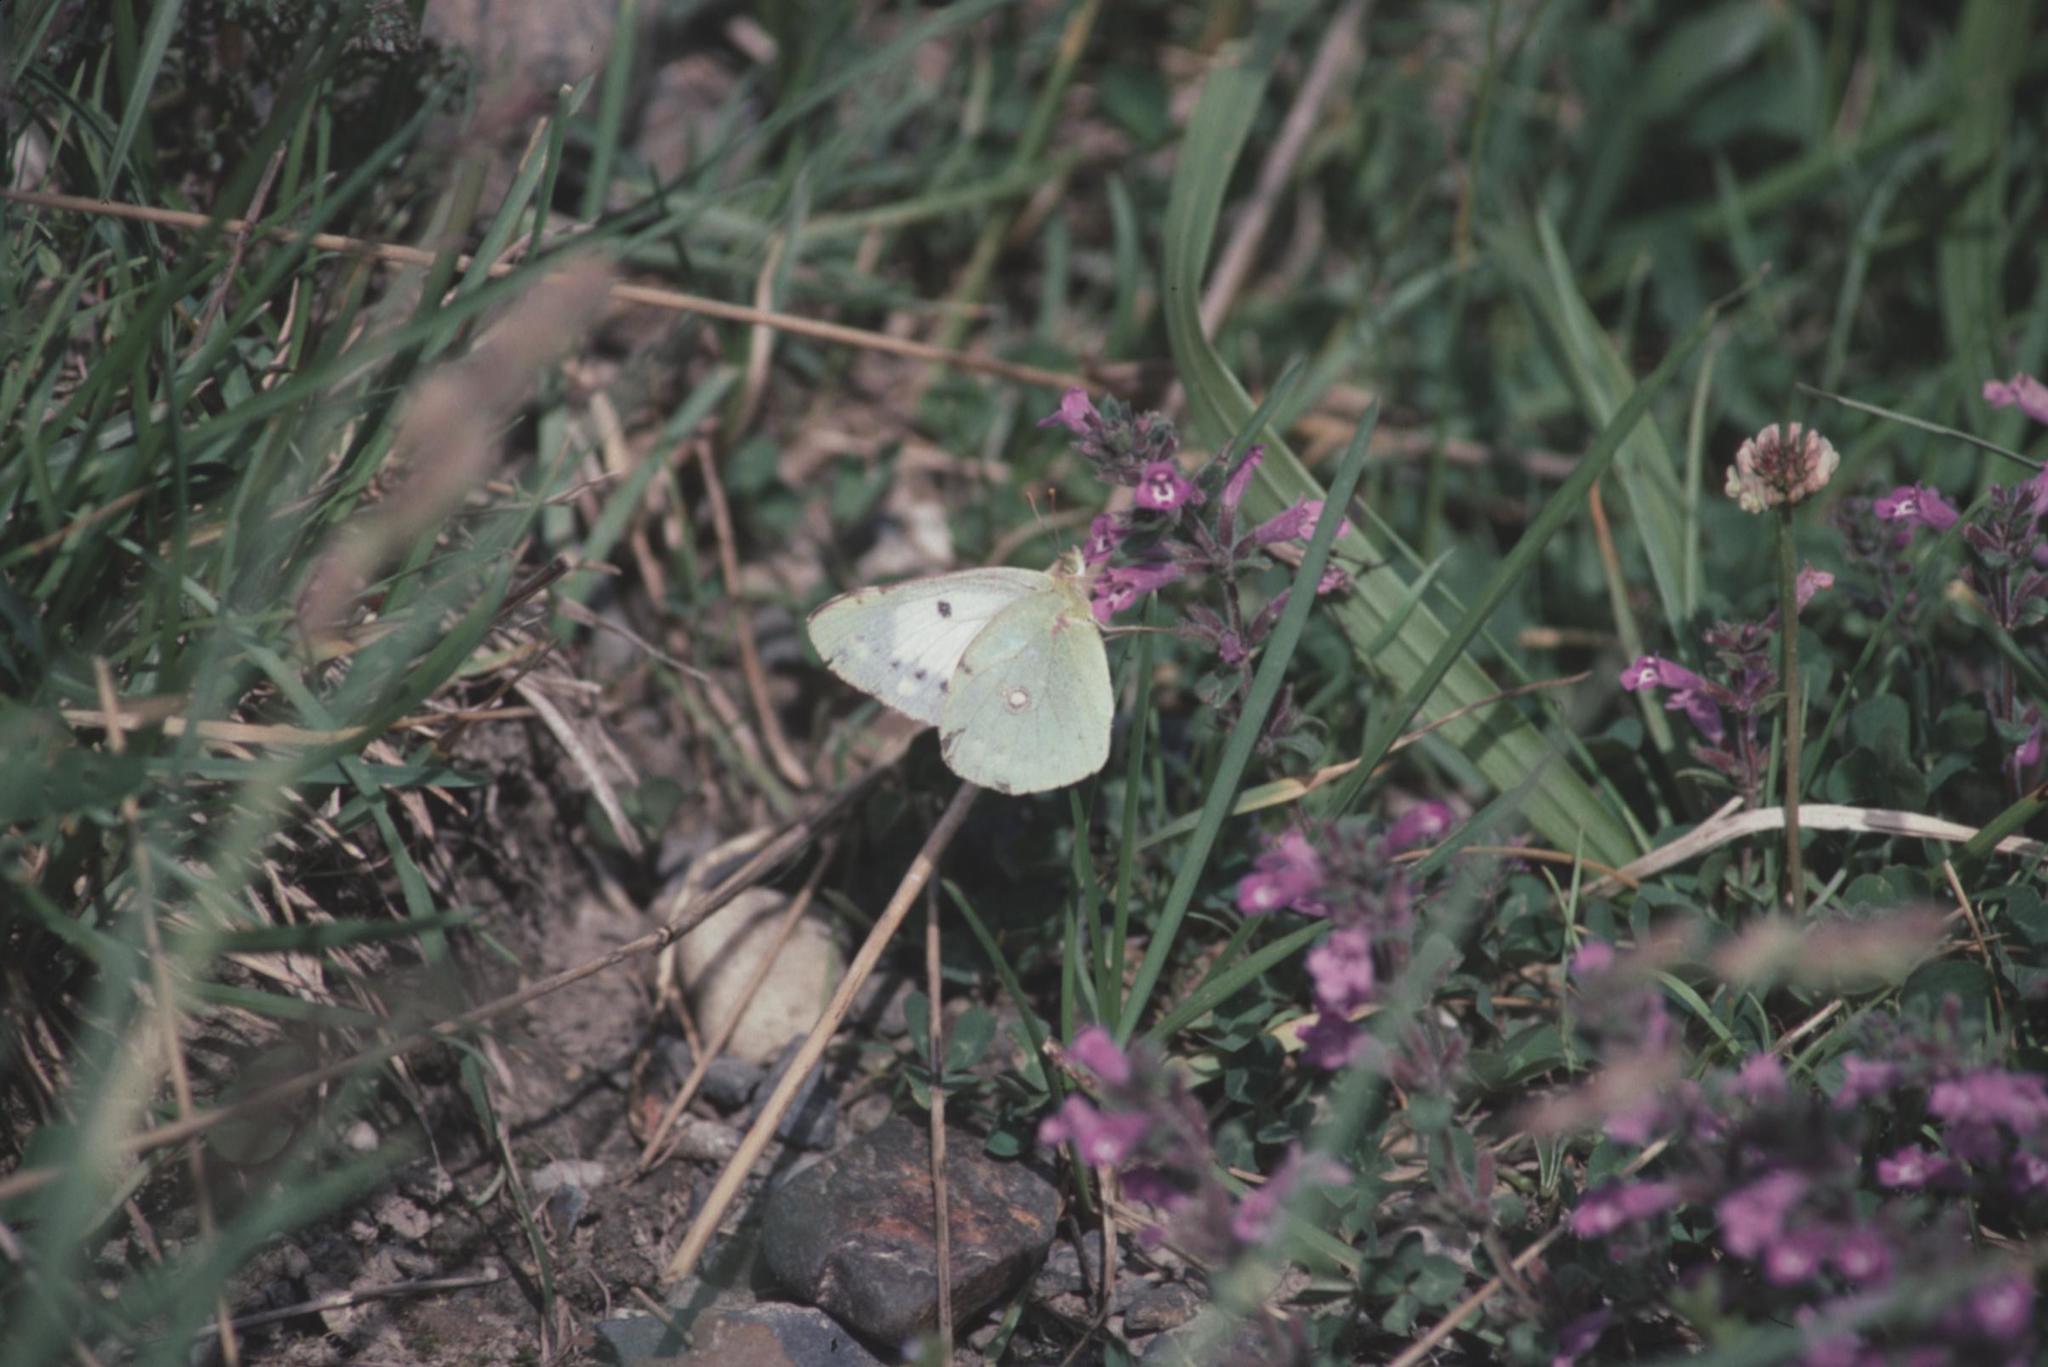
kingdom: Animalia
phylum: Arthropoda
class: Insecta
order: Lepidoptera
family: Pieridae
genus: Colias
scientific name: Colias croceus
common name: Clouded yellow
